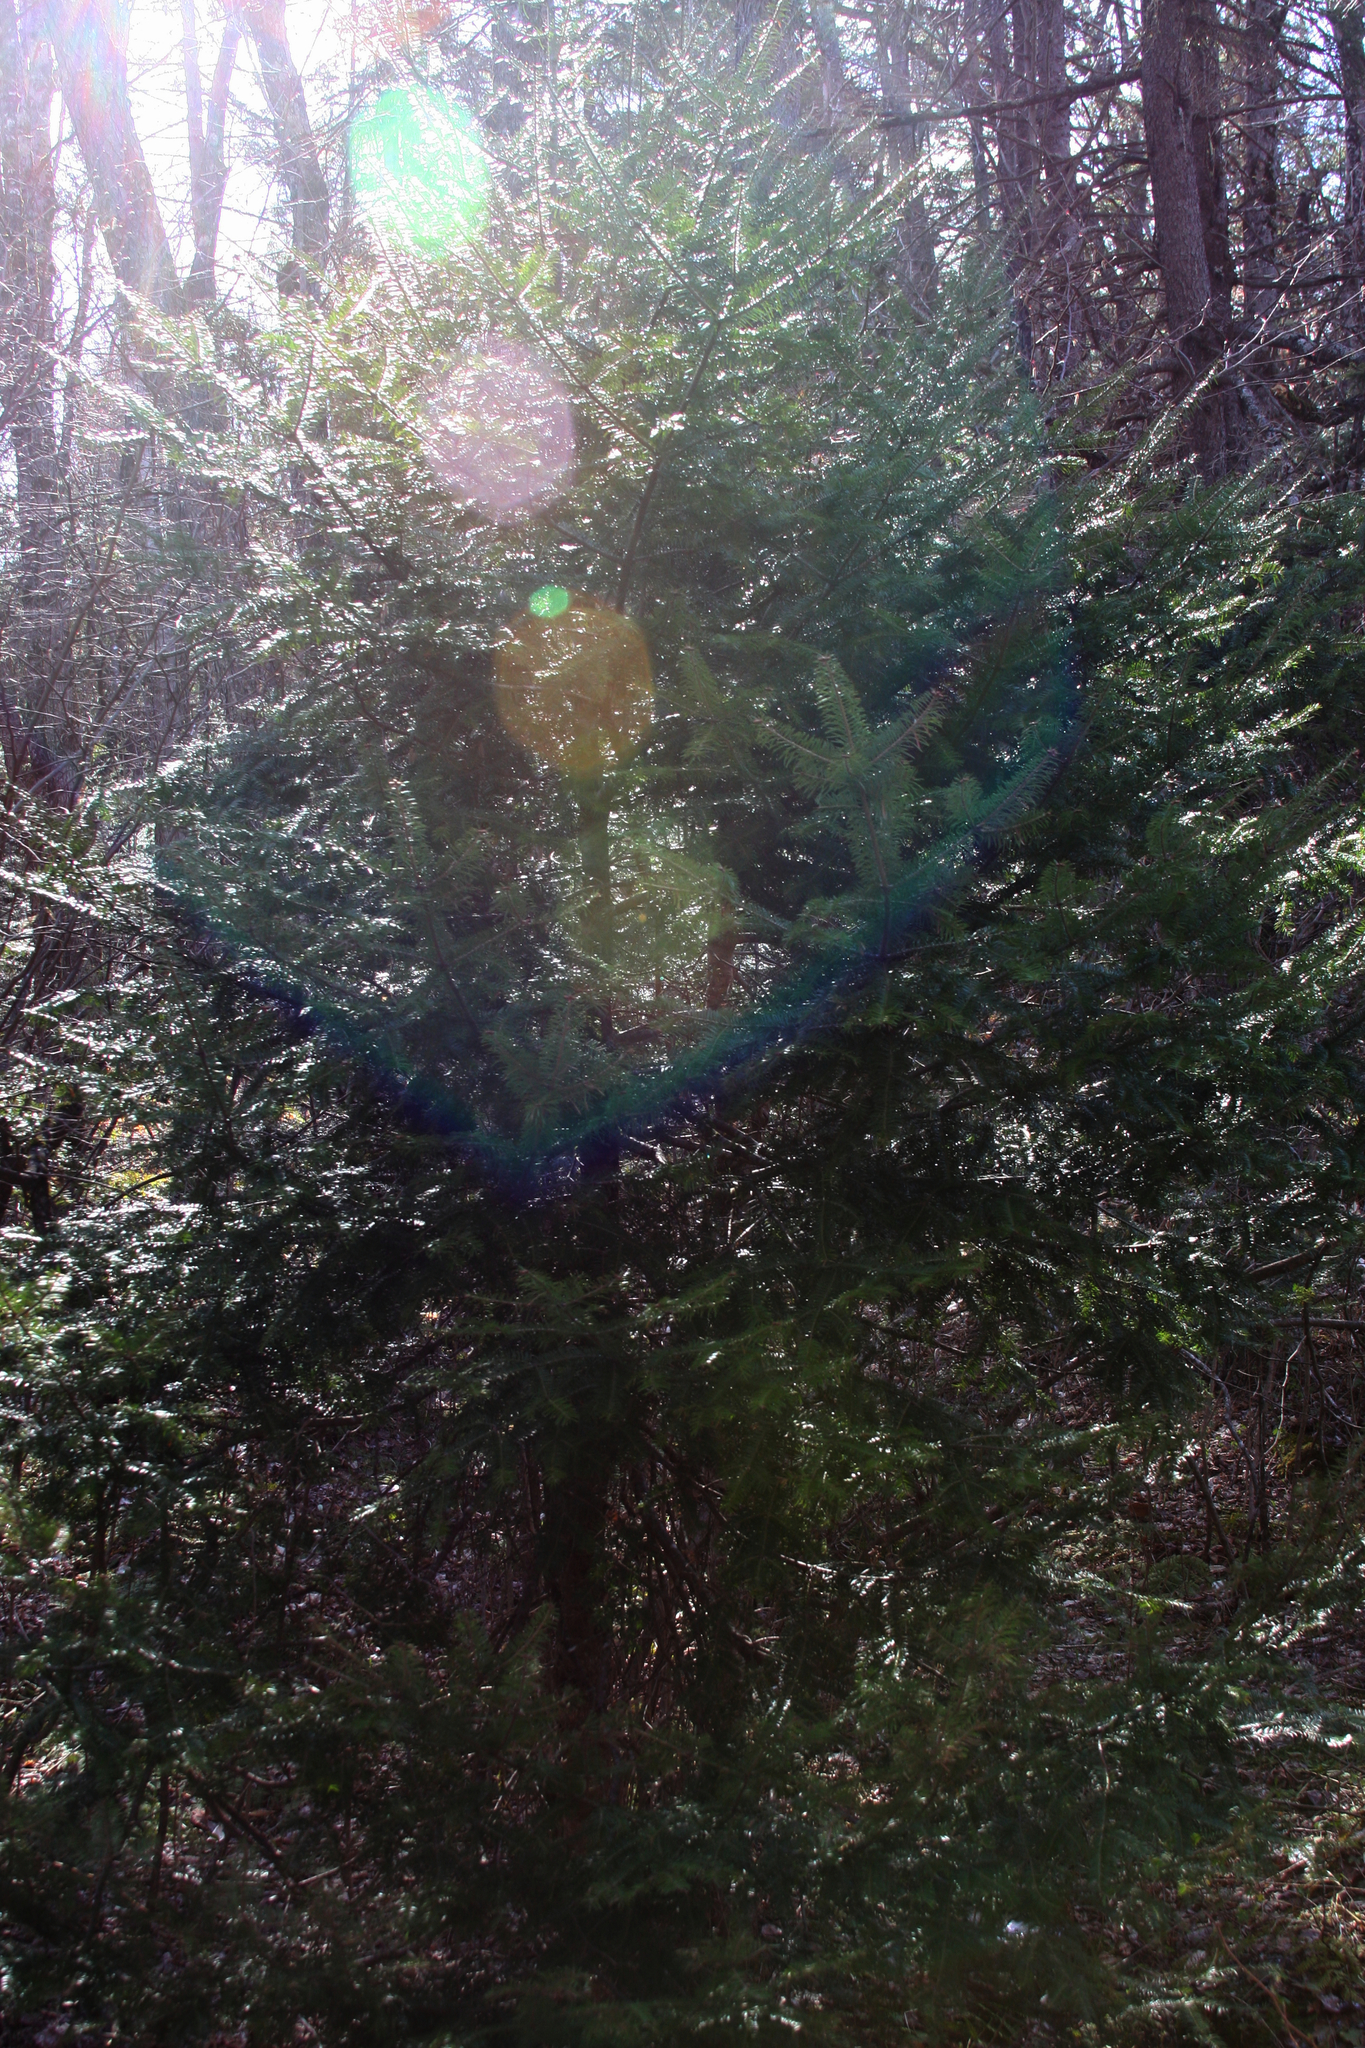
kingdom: Plantae
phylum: Tracheophyta
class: Pinopsida
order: Pinales
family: Pinaceae
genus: Abies
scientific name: Abies balsamea
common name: Balsam fir
